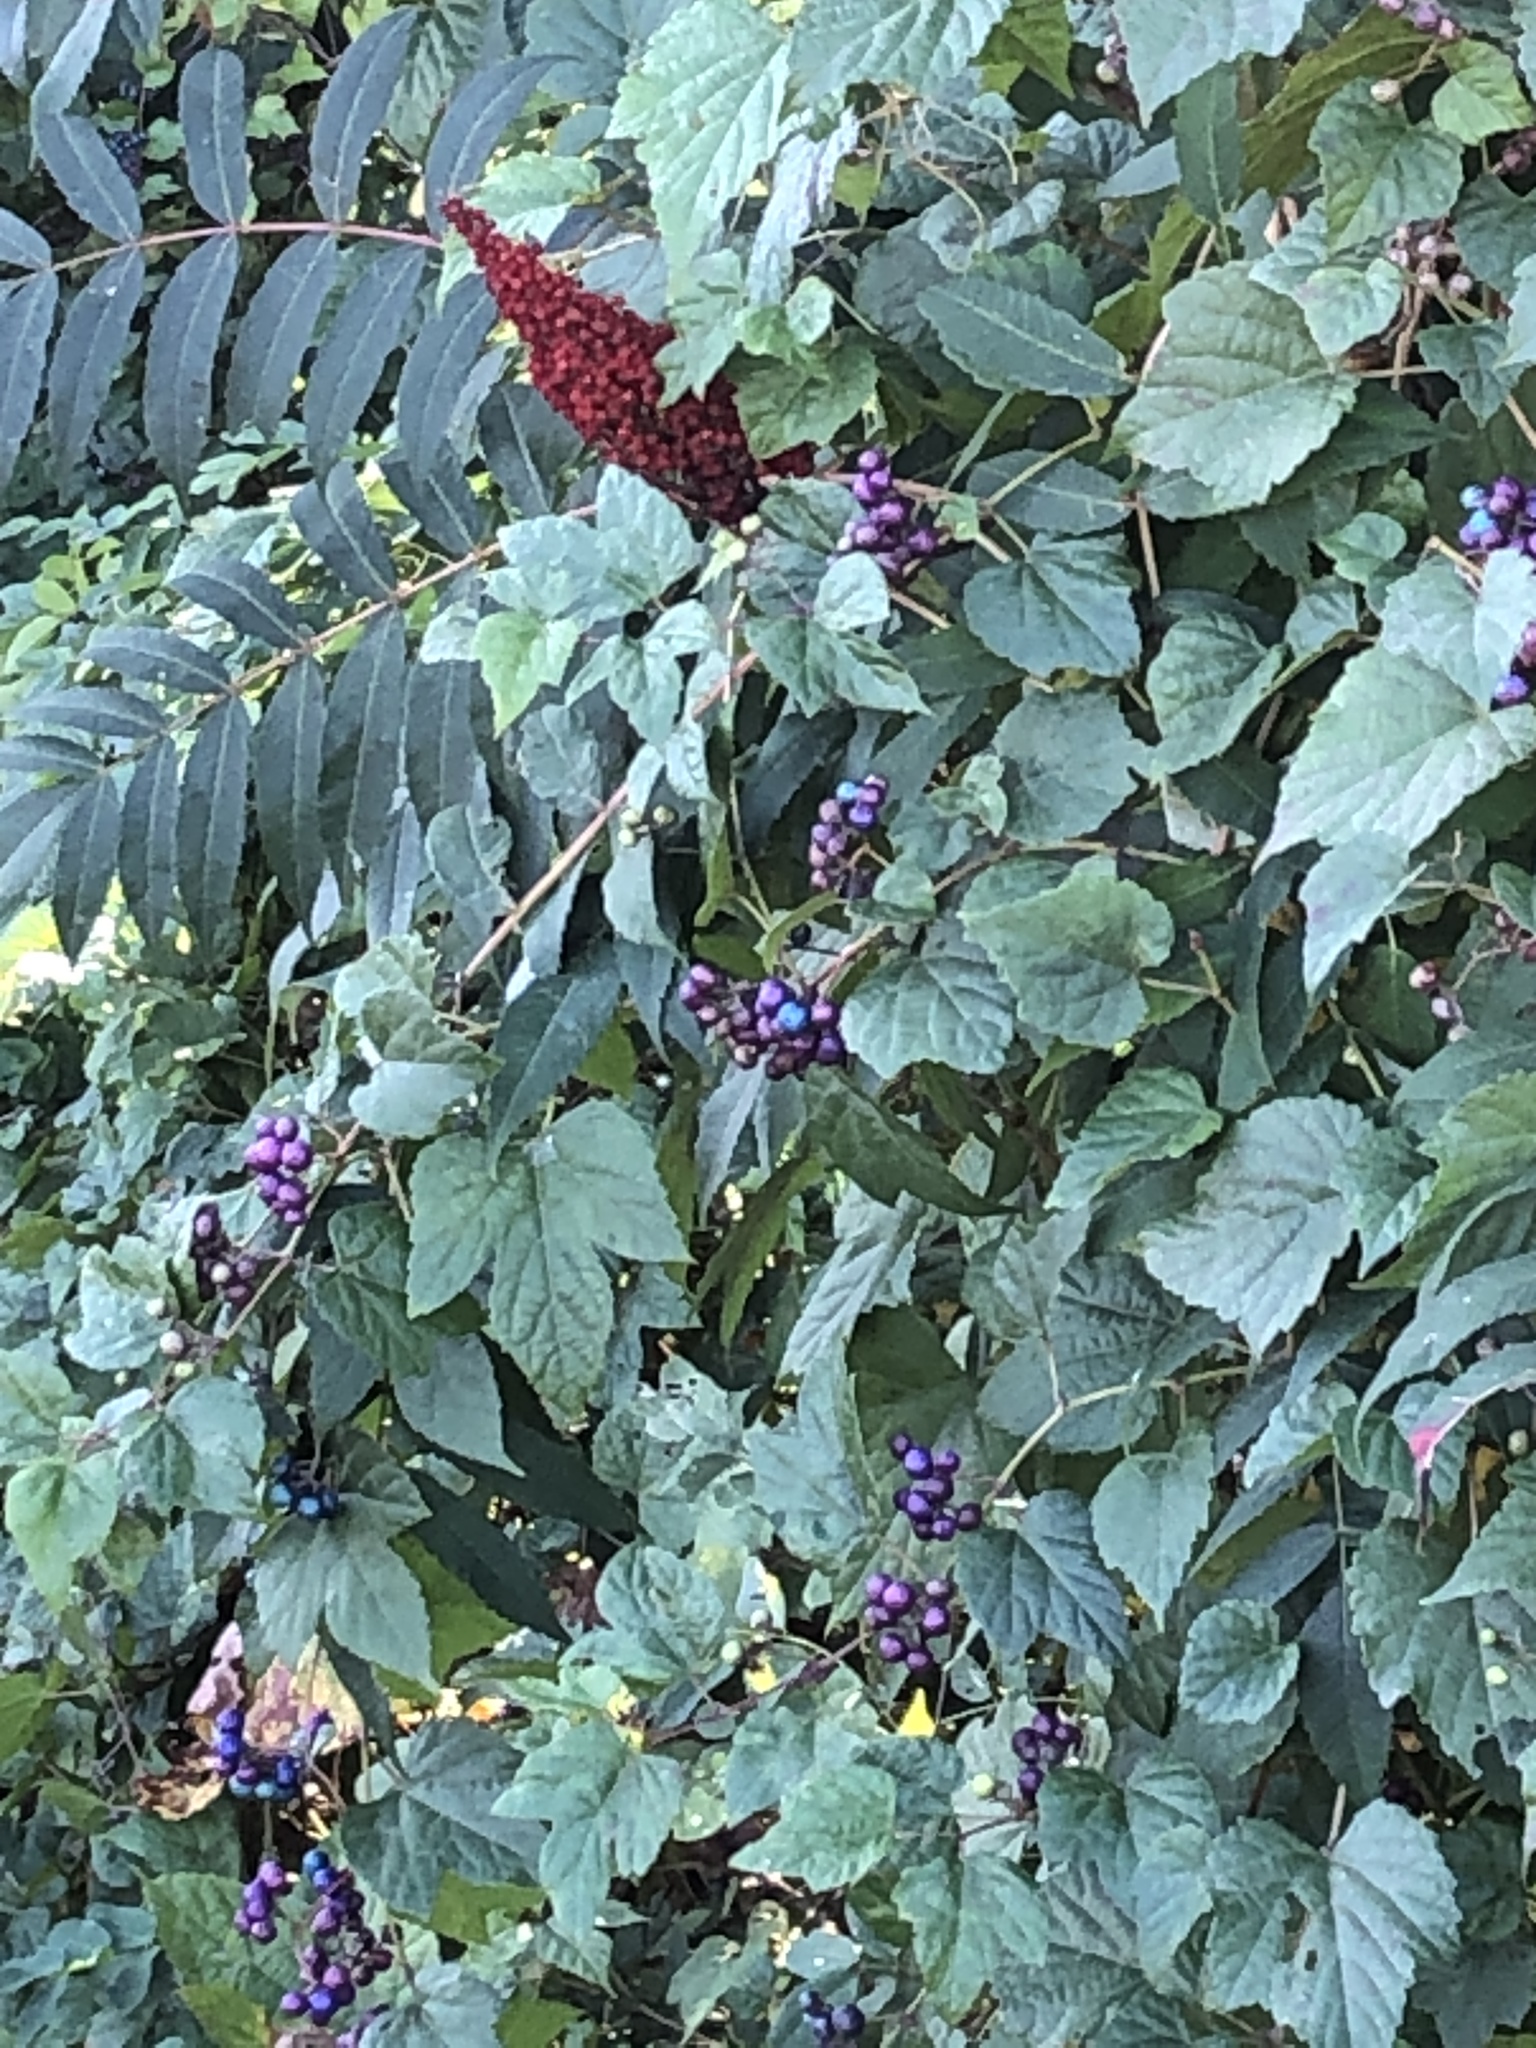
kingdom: Plantae
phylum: Tracheophyta
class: Magnoliopsida
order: Vitales
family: Vitaceae
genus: Ampelopsis
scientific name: Ampelopsis glandulosa
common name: Amur peppervine
